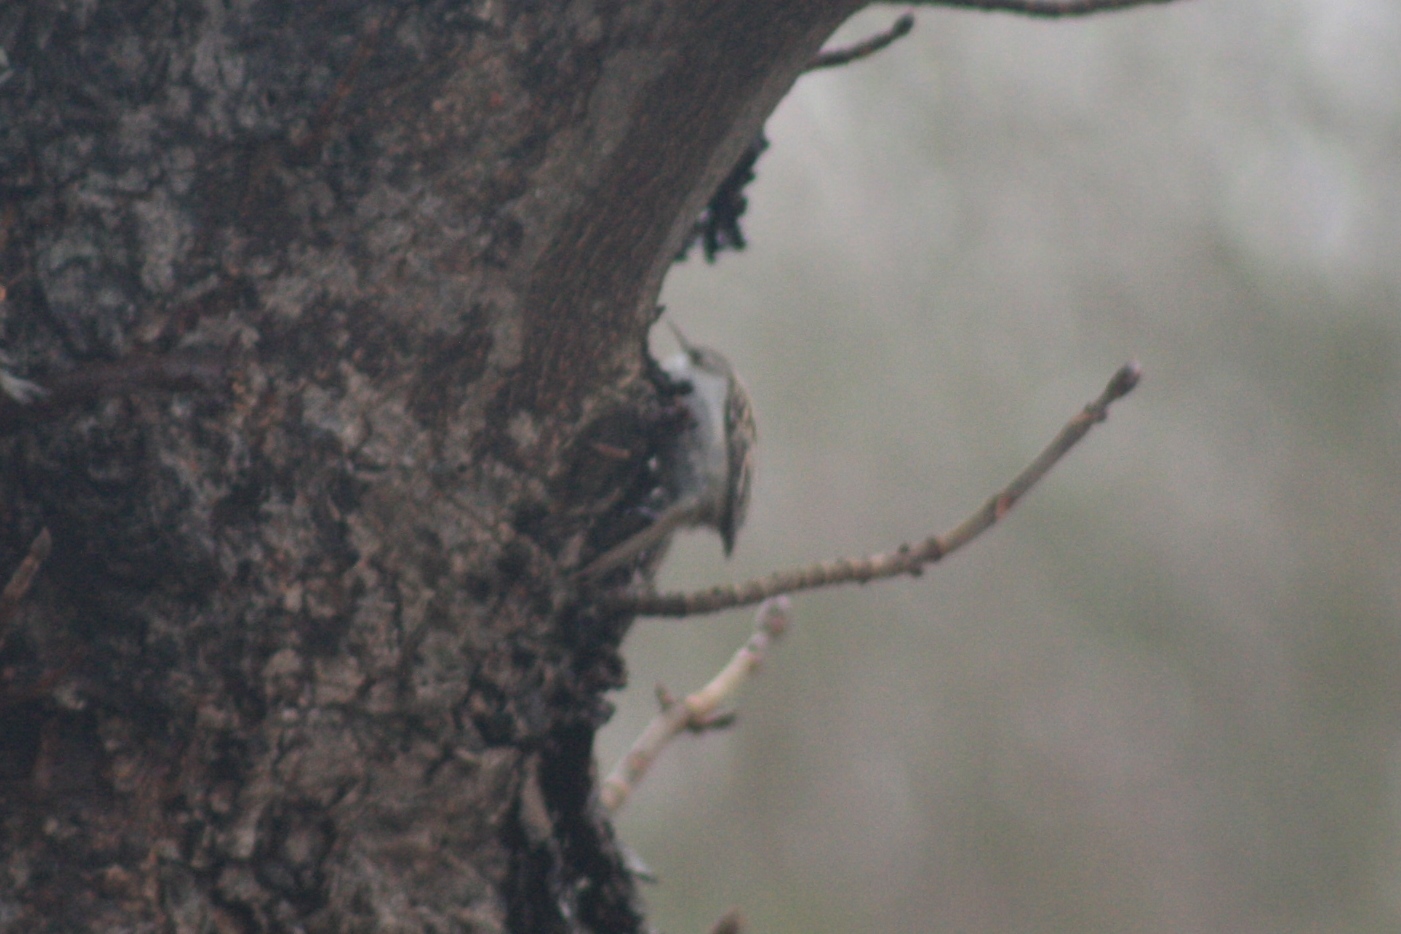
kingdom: Animalia
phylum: Chordata
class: Aves
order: Passeriformes
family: Certhiidae
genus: Certhia
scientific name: Certhia familiaris
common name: Eurasian treecreeper
